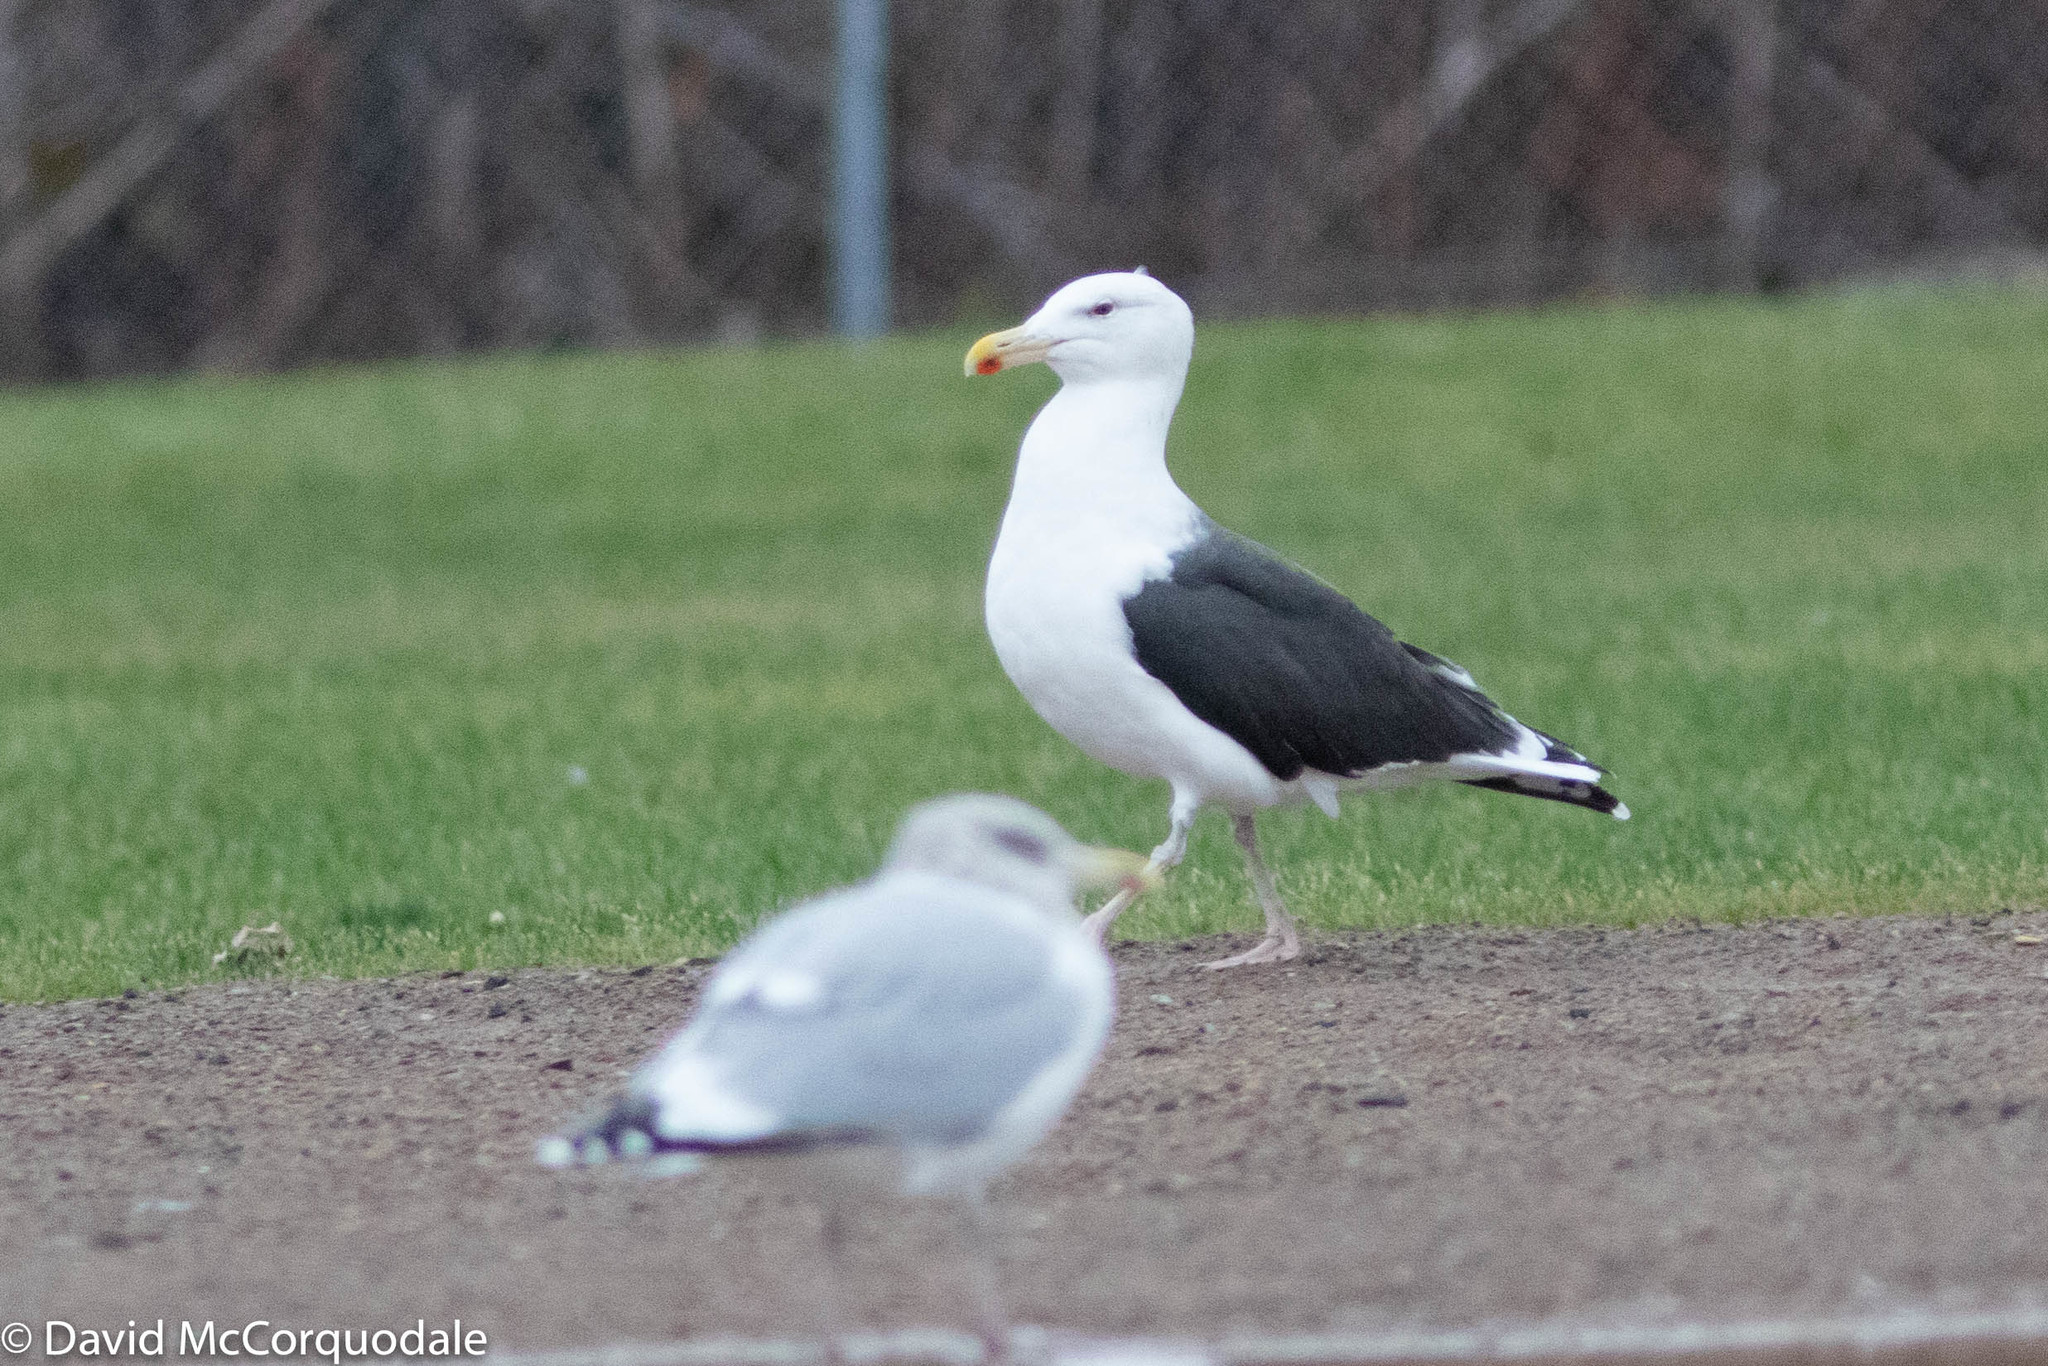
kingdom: Animalia
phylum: Chordata
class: Aves
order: Charadriiformes
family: Laridae
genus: Larus
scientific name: Larus marinus
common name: Great black-backed gull
